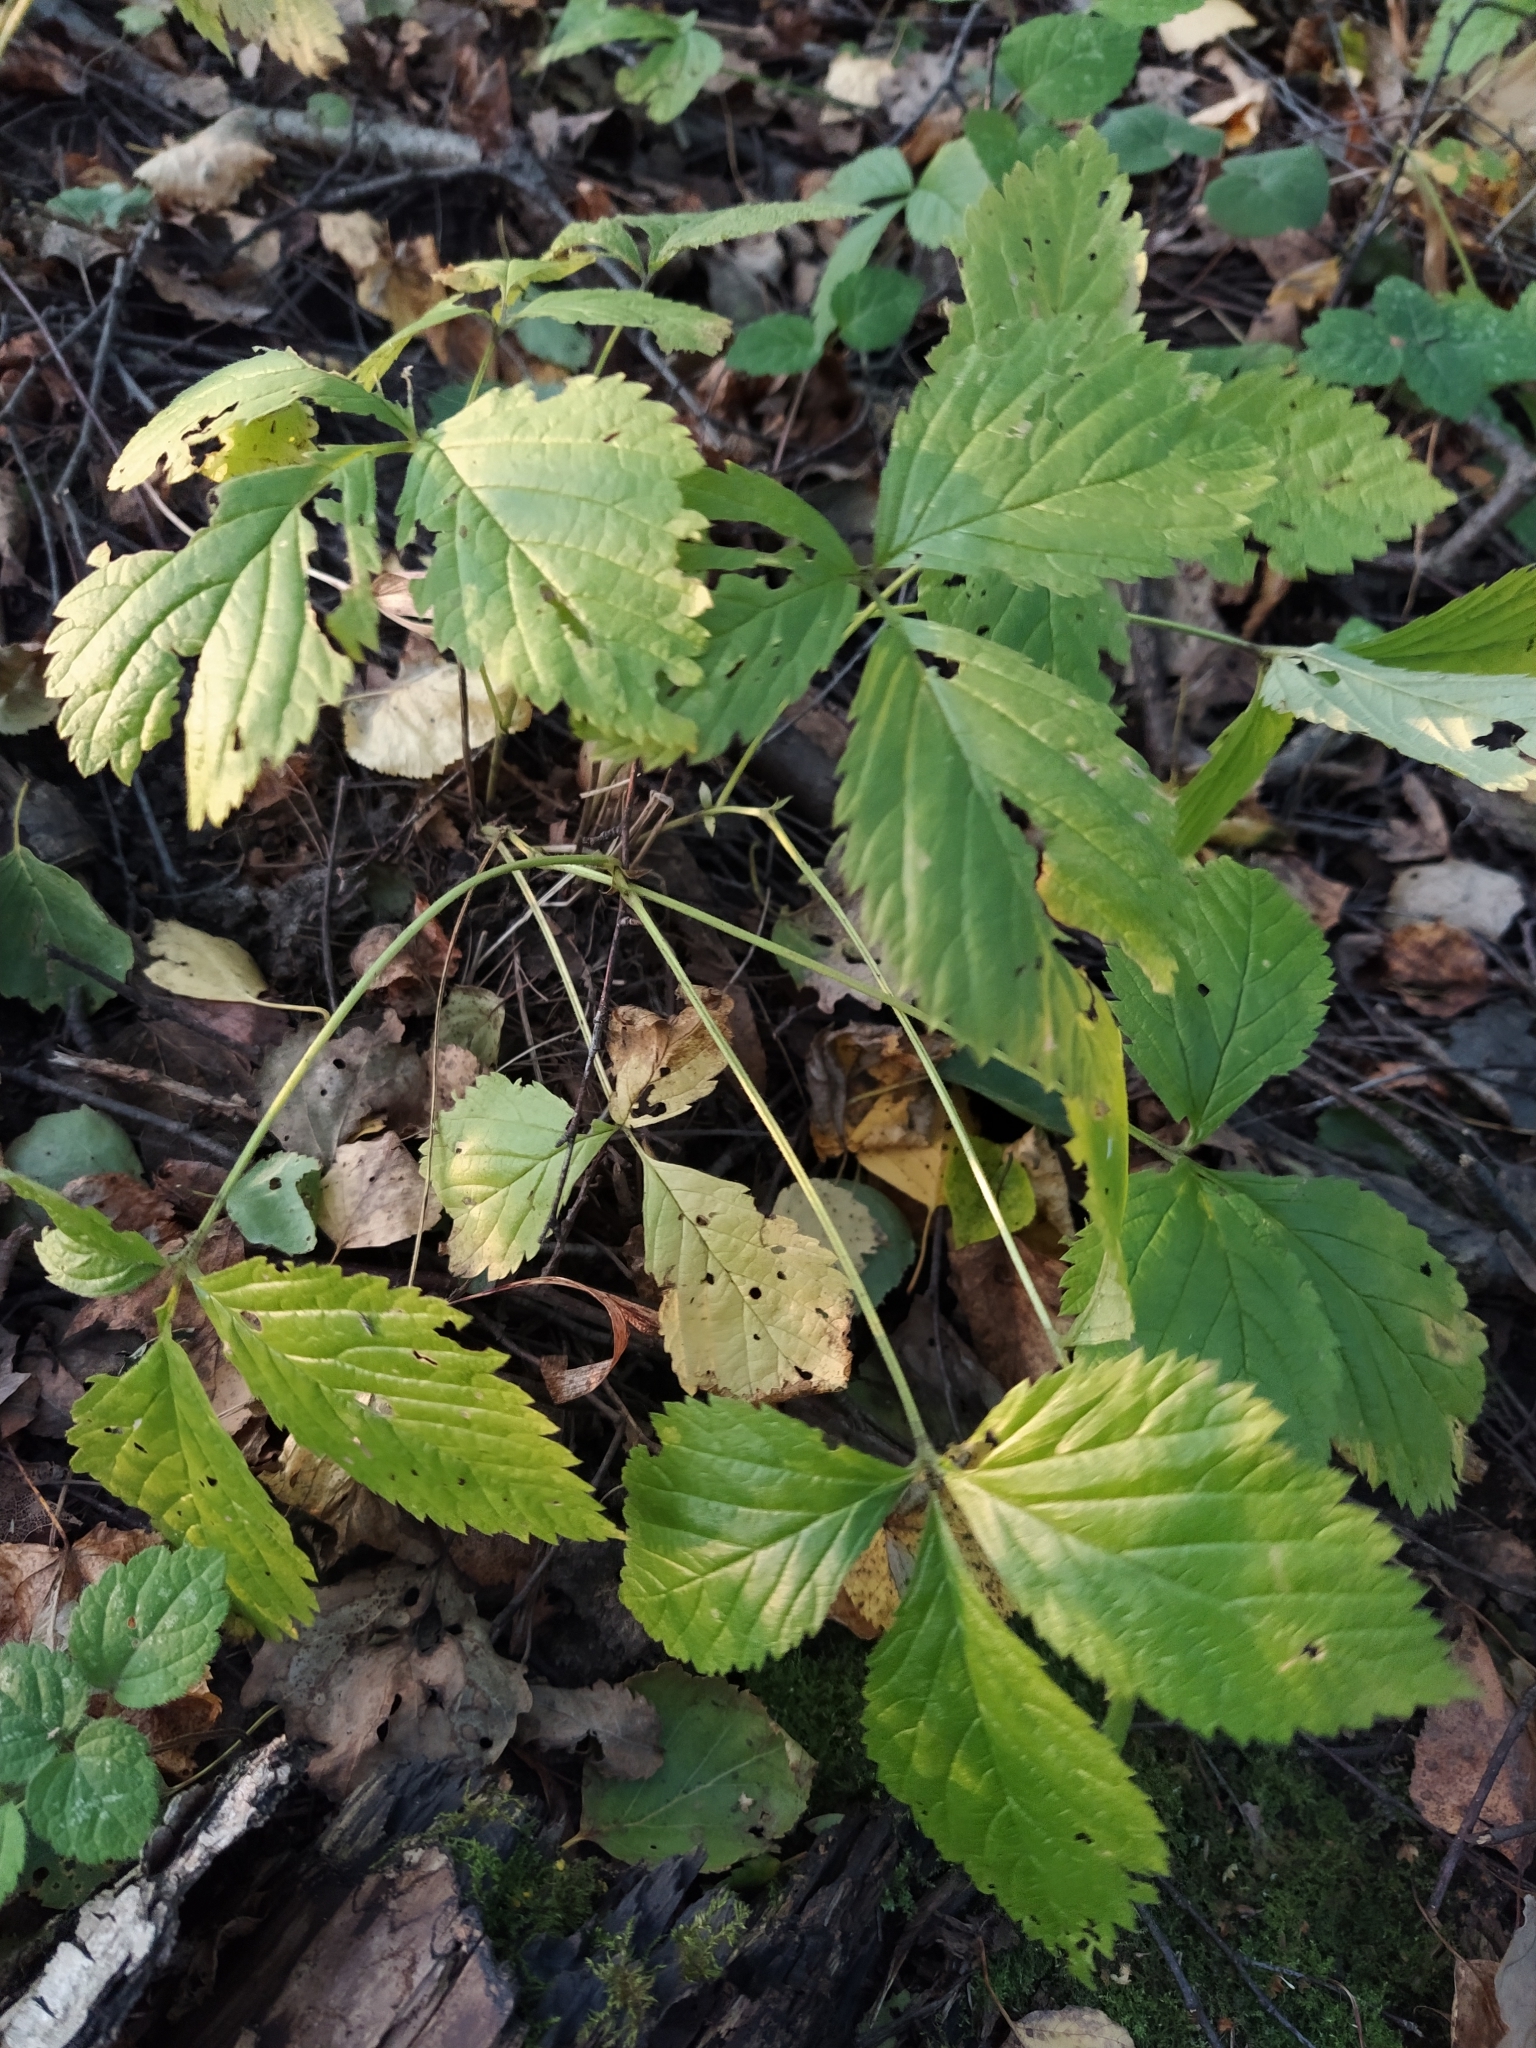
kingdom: Plantae
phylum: Tracheophyta
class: Magnoliopsida
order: Rosales
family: Rosaceae
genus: Rubus
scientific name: Rubus saxatilis
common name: Stone bramble
